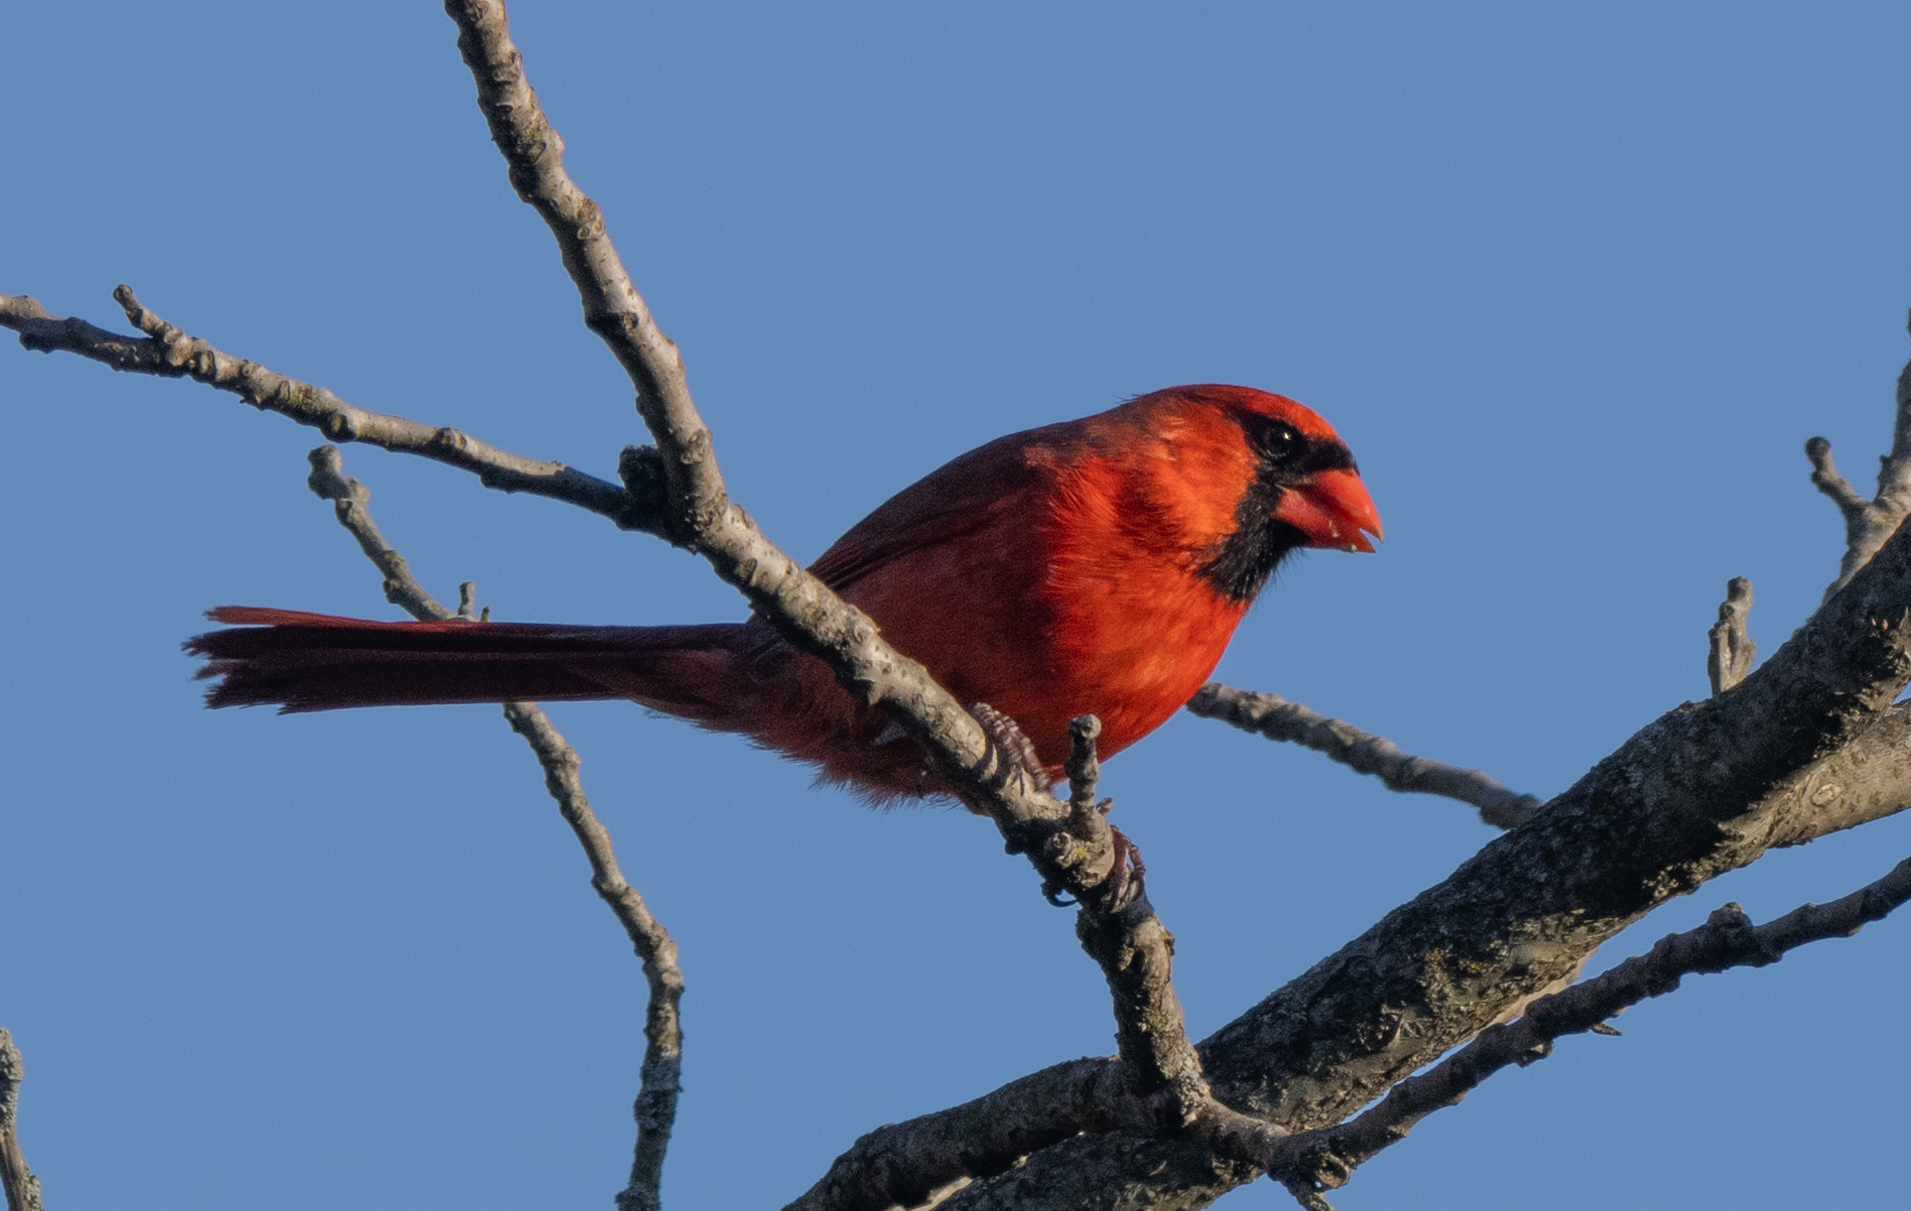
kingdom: Animalia
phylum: Chordata
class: Aves
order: Passeriformes
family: Cardinalidae
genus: Cardinalis
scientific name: Cardinalis cardinalis
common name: Northern cardinal
